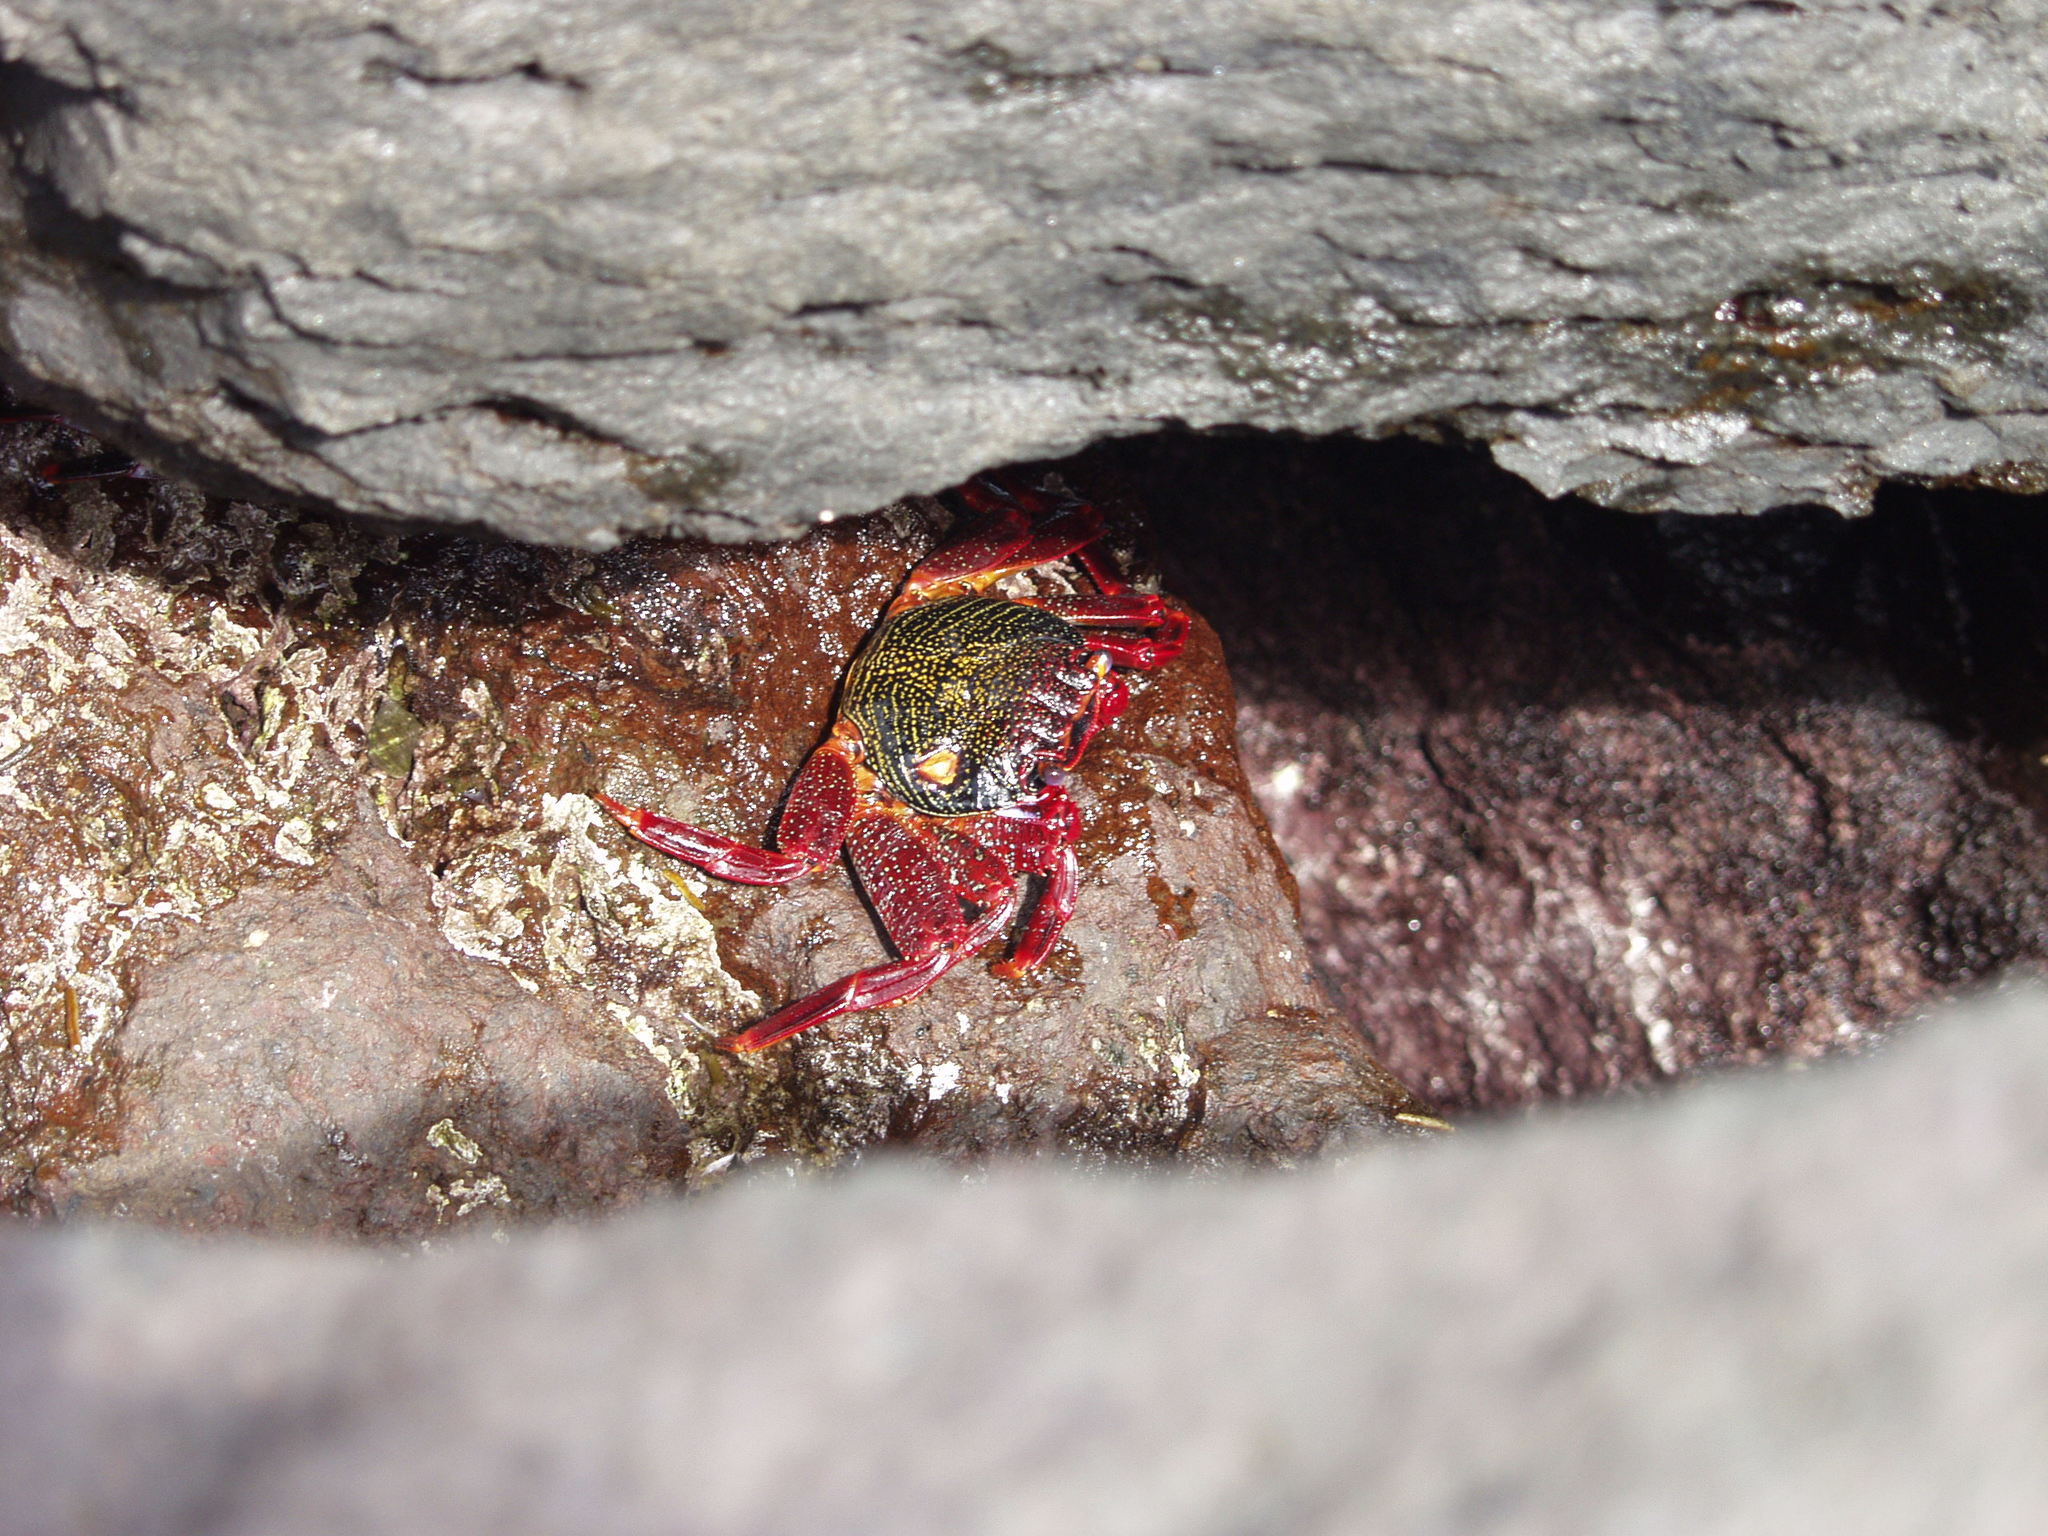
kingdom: Animalia
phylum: Arthropoda
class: Malacostraca
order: Decapoda
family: Grapsidae
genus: Grapsus
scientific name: Grapsus adscensionis
